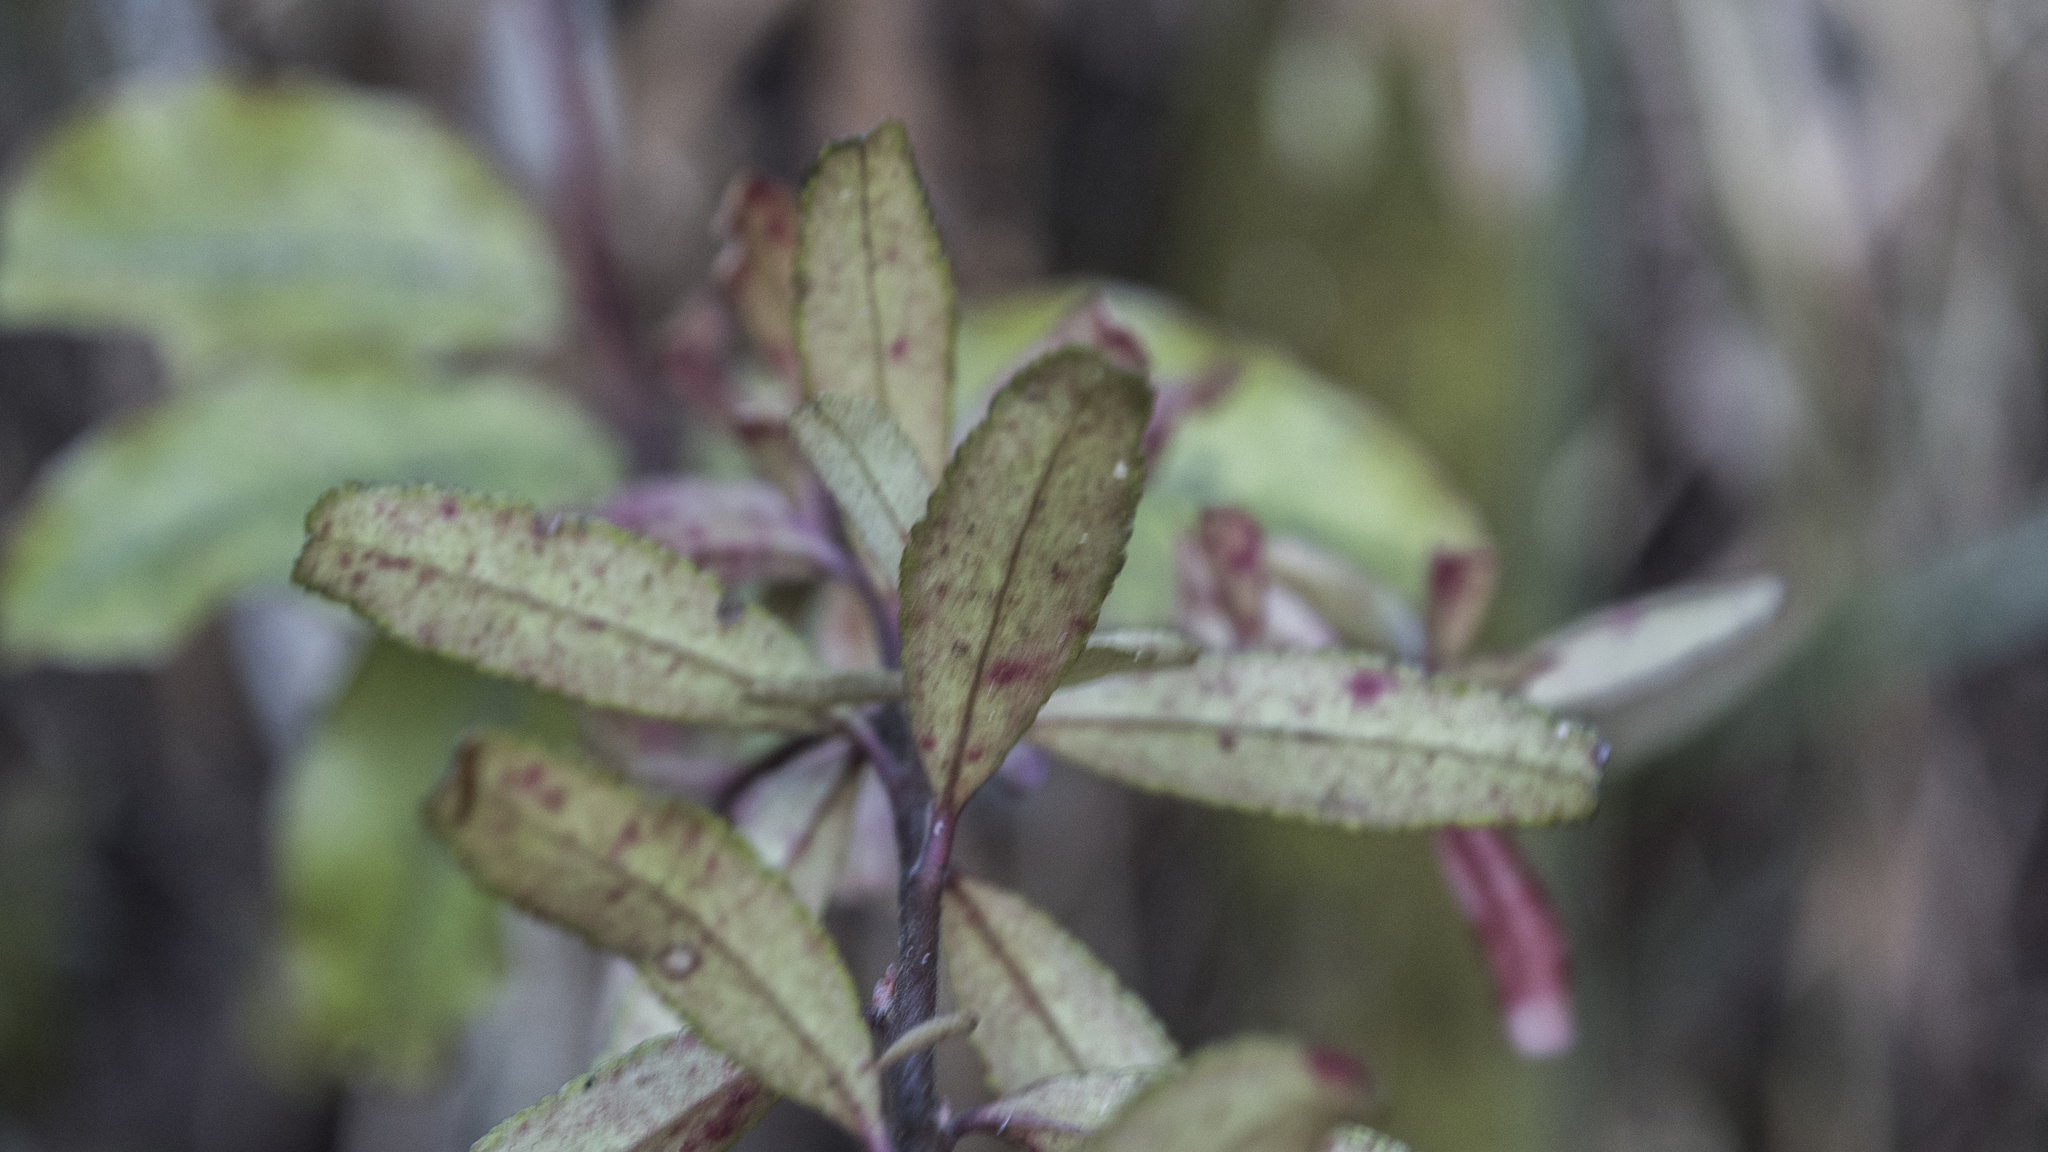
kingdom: Plantae
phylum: Tracheophyta
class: Magnoliopsida
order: Sapindales
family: Rutaceae
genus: Leionema
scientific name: Leionema nudum
